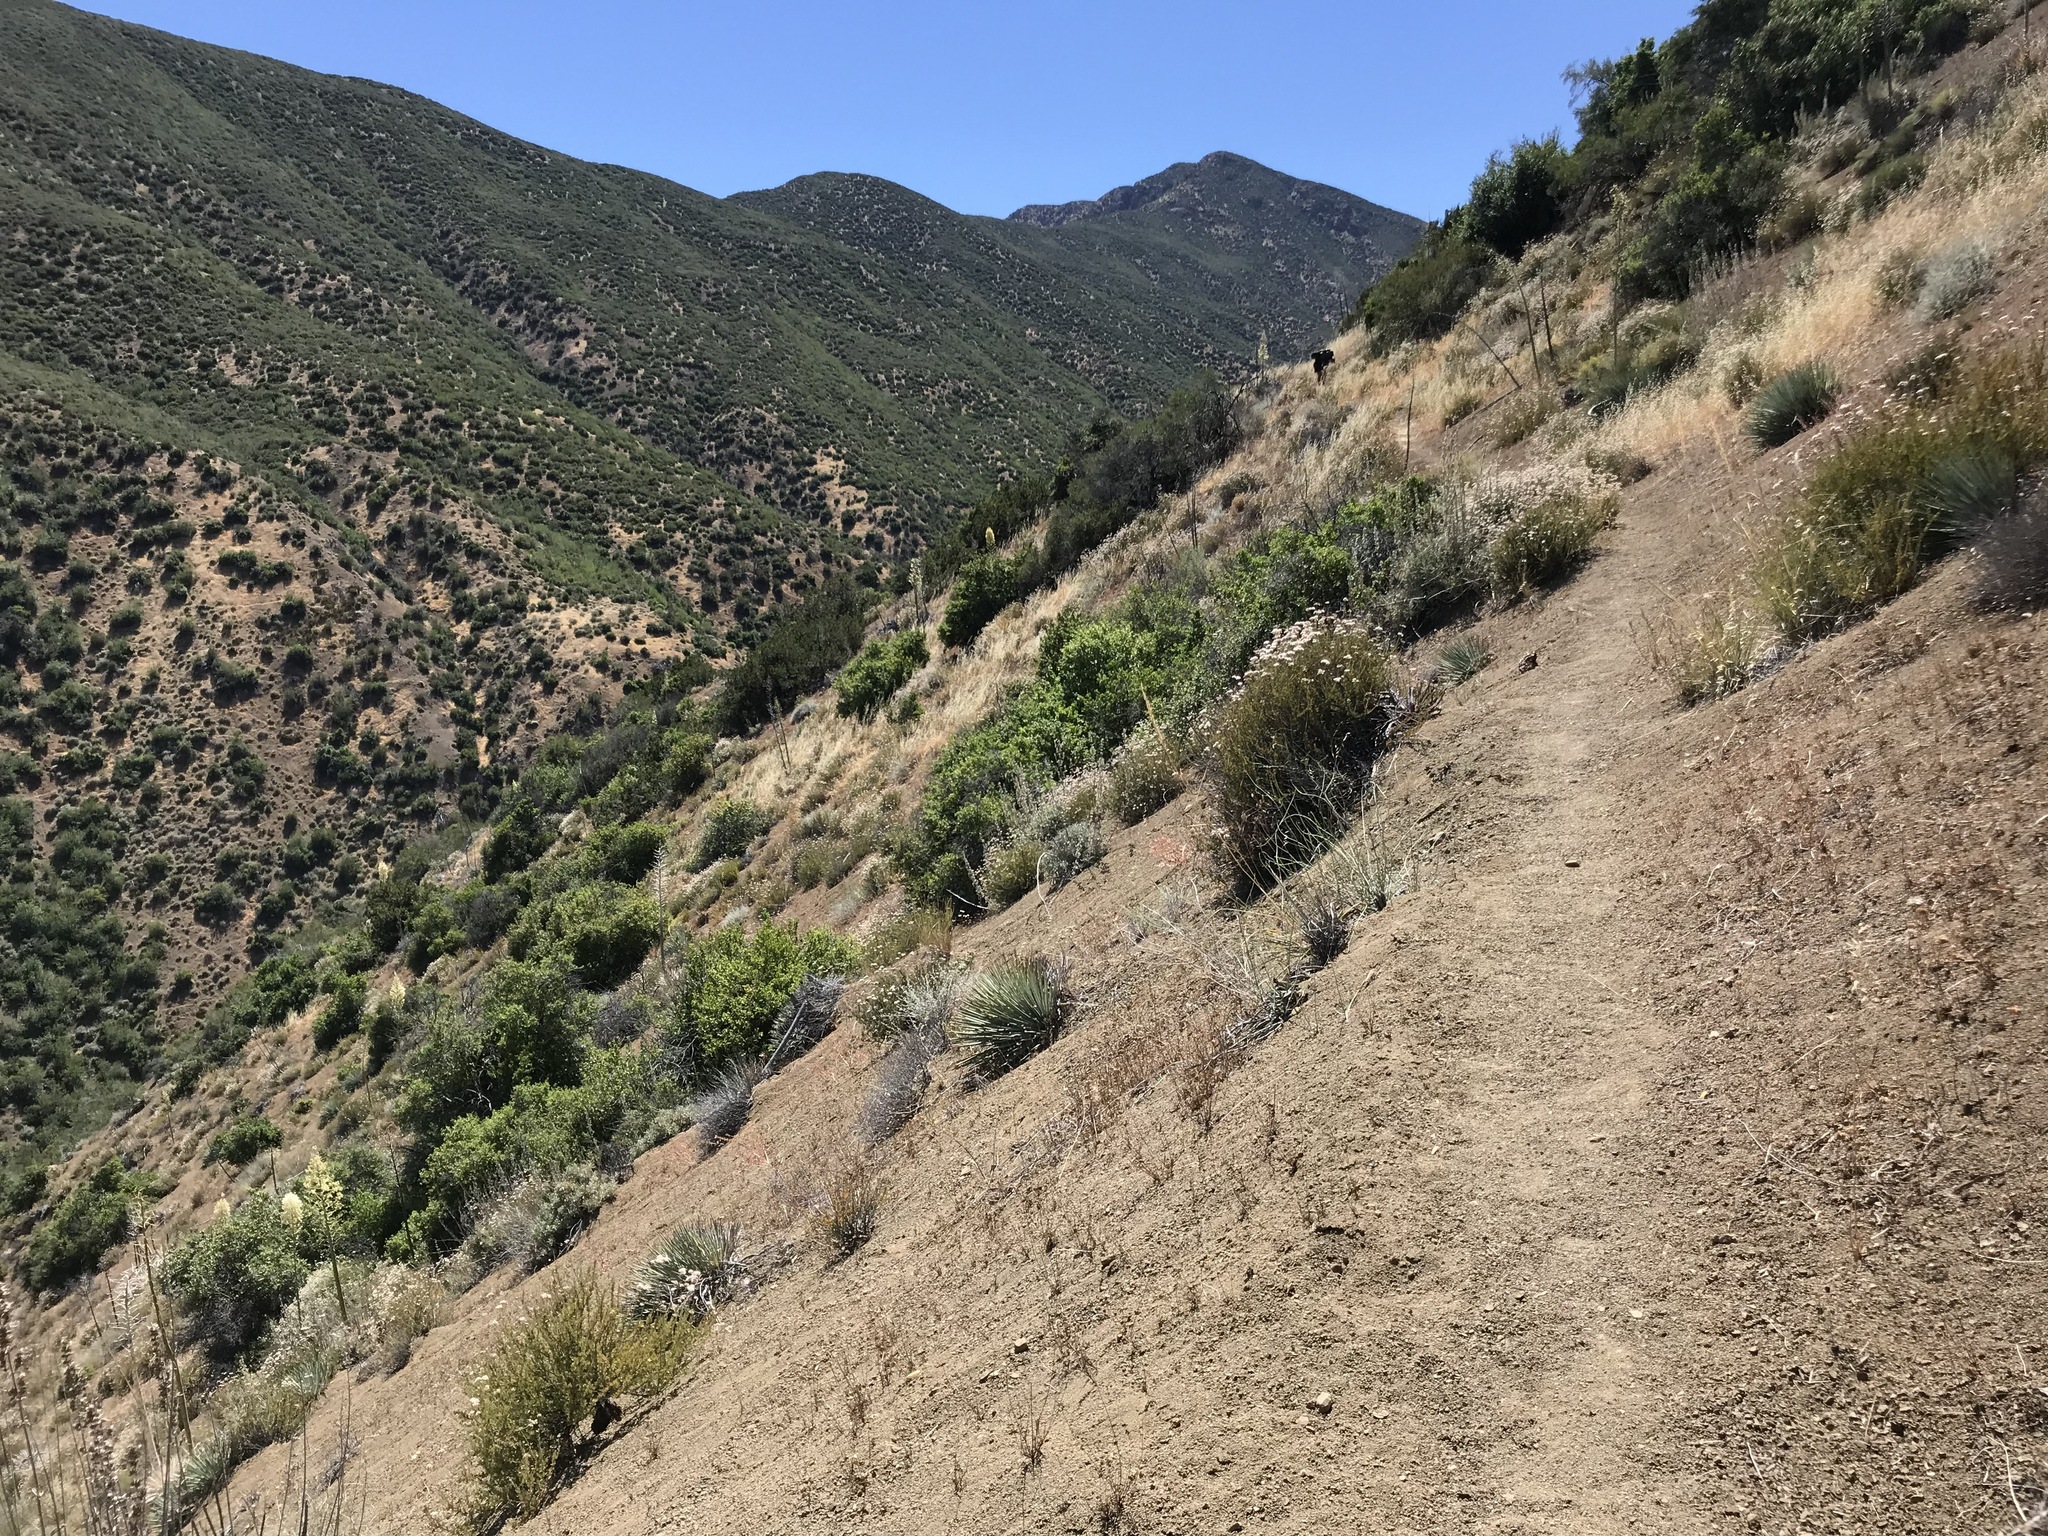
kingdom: Plantae
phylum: Tracheophyta
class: Magnoliopsida
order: Caryophyllales
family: Polygonaceae
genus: Eriogonum
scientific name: Eriogonum fasciculatum
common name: California wild buckwheat
